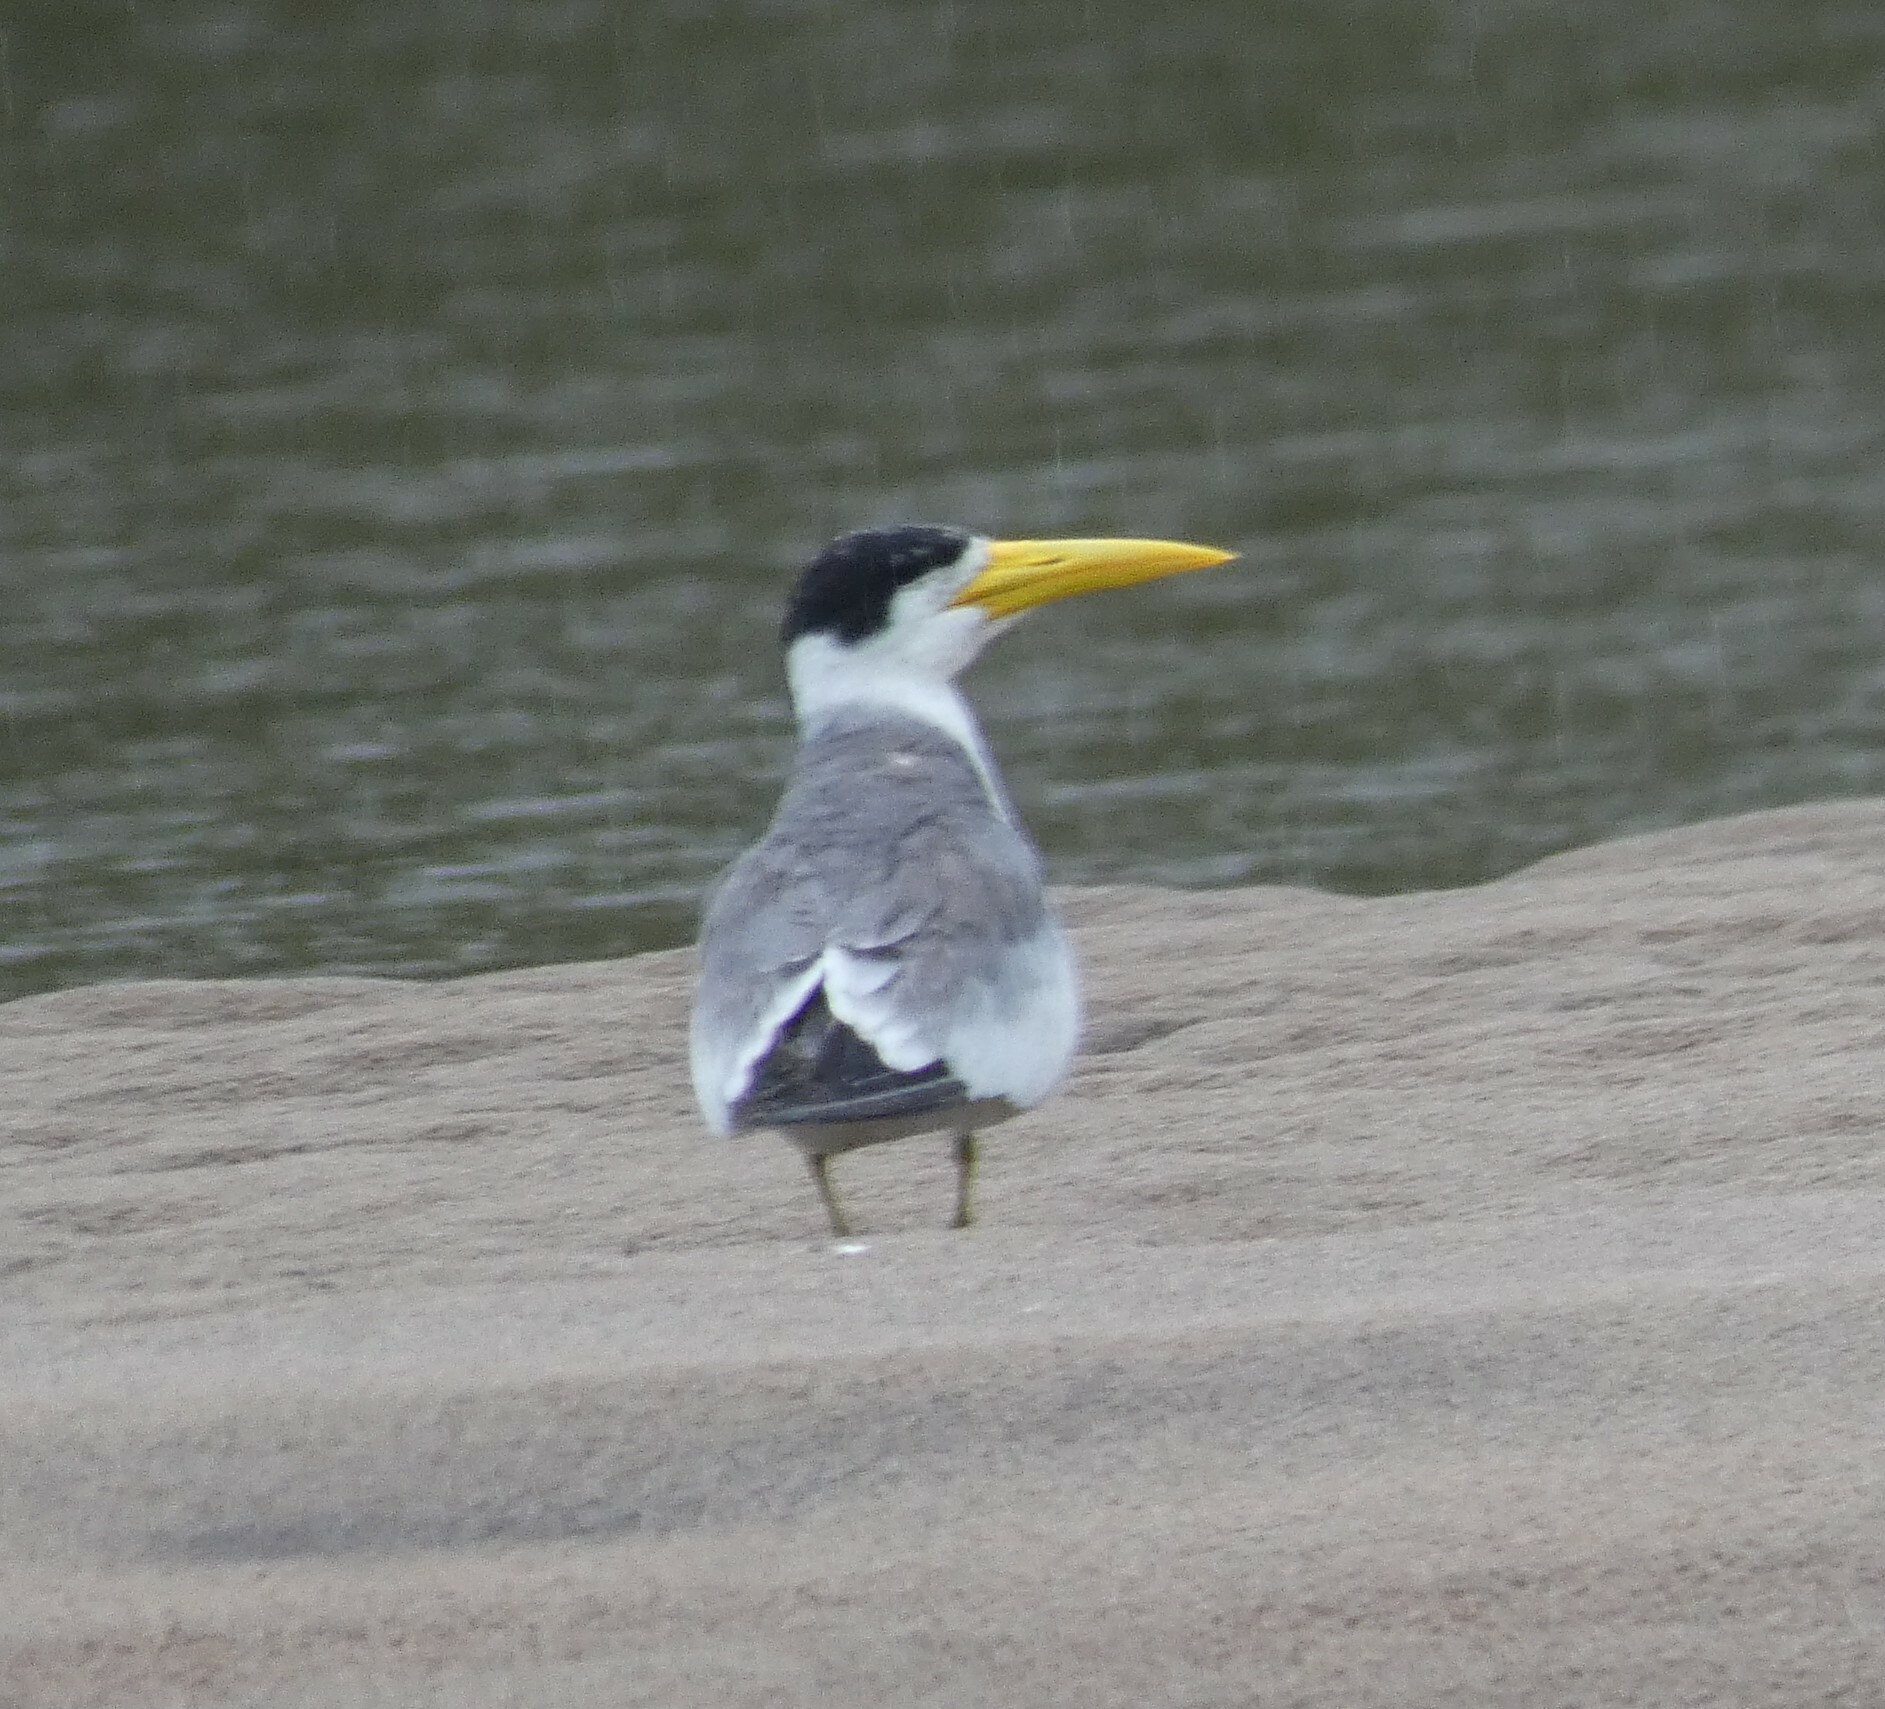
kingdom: Animalia
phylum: Chordata
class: Aves
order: Charadriiformes
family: Laridae
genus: Phaetusa
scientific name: Phaetusa simplex
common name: Large-billed tern
